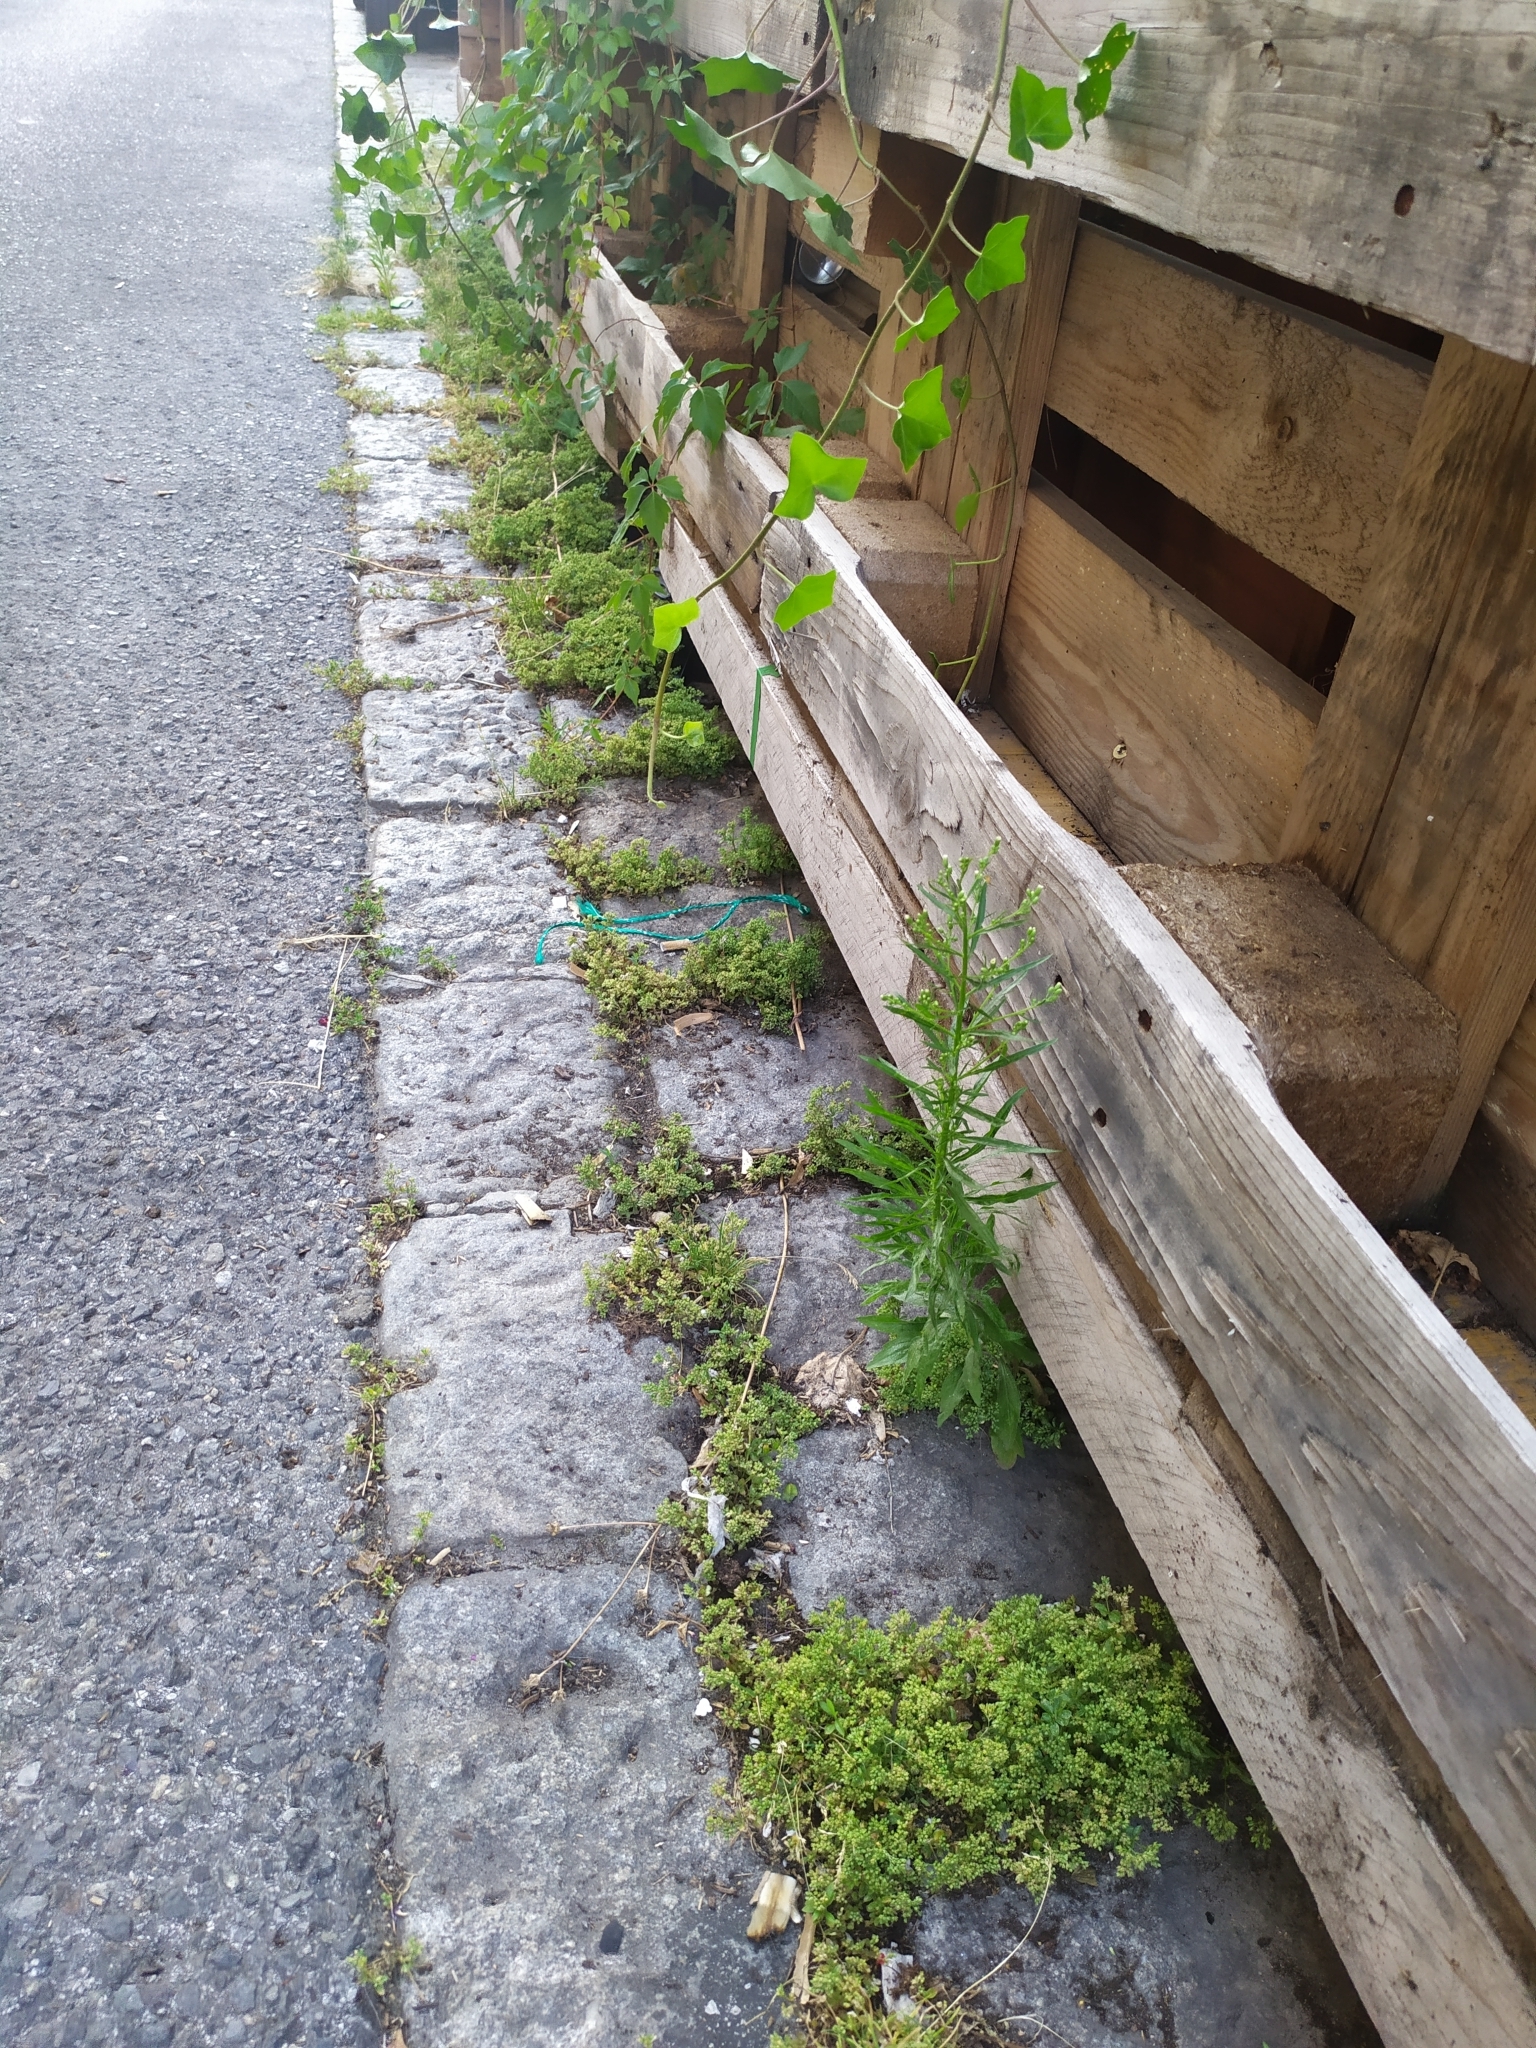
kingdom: Plantae
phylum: Tracheophyta
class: Magnoliopsida
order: Caryophyllales
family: Caryophyllaceae
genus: Polycarpon
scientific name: Polycarpon tetraphyllum
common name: Four-leaved all-seed
